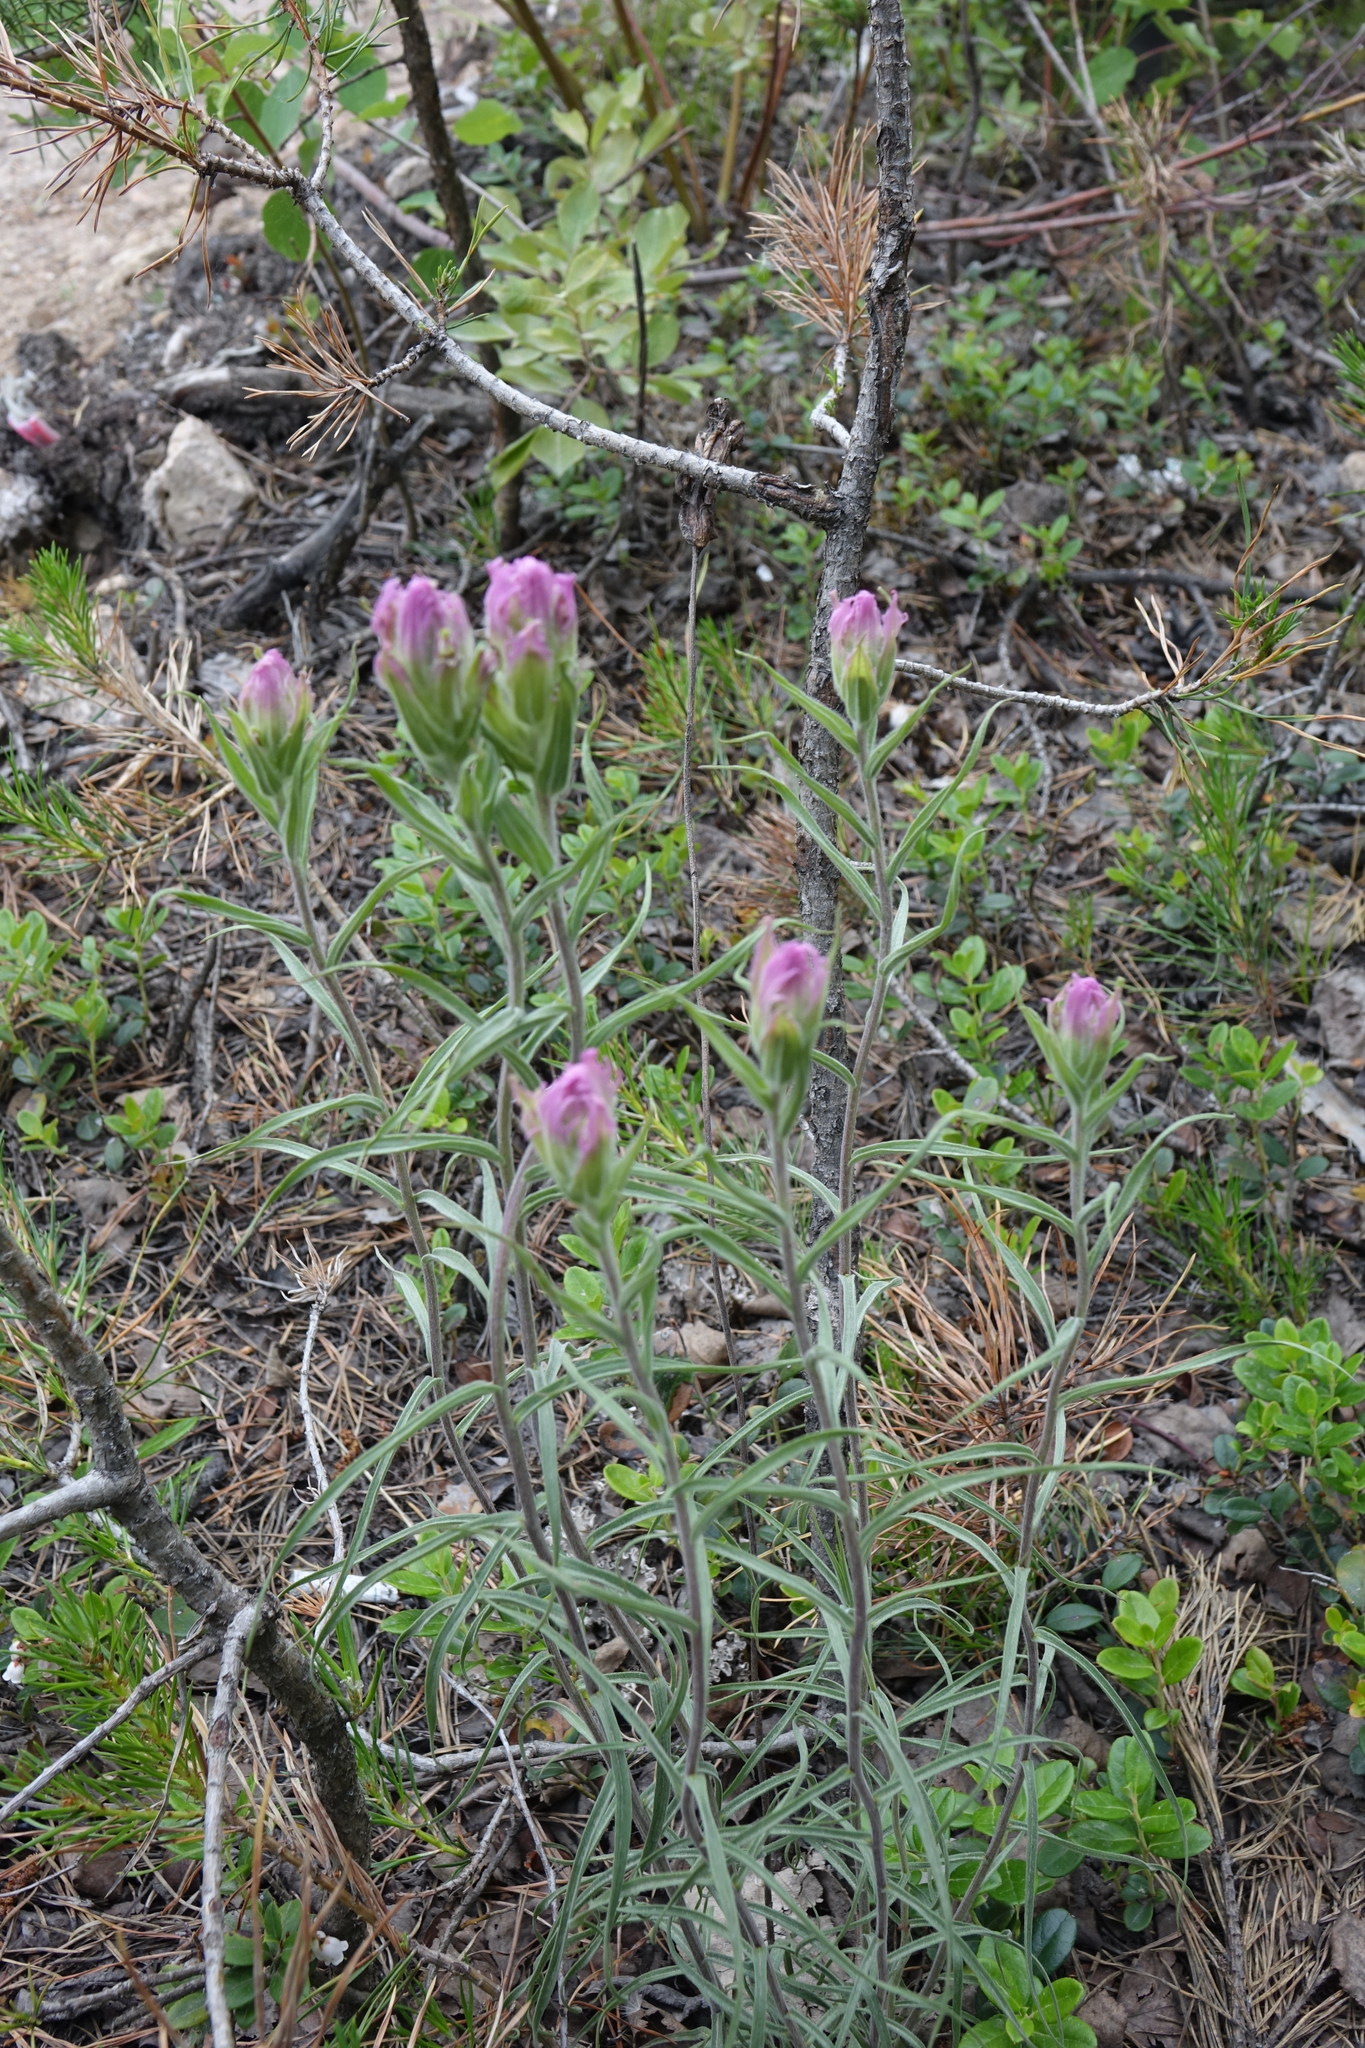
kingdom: Plantae
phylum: Tracheophyta
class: Magnoliopsida
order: Lamiales
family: Orobanchaceae
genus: Castilleja
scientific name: Castilleja rubra
